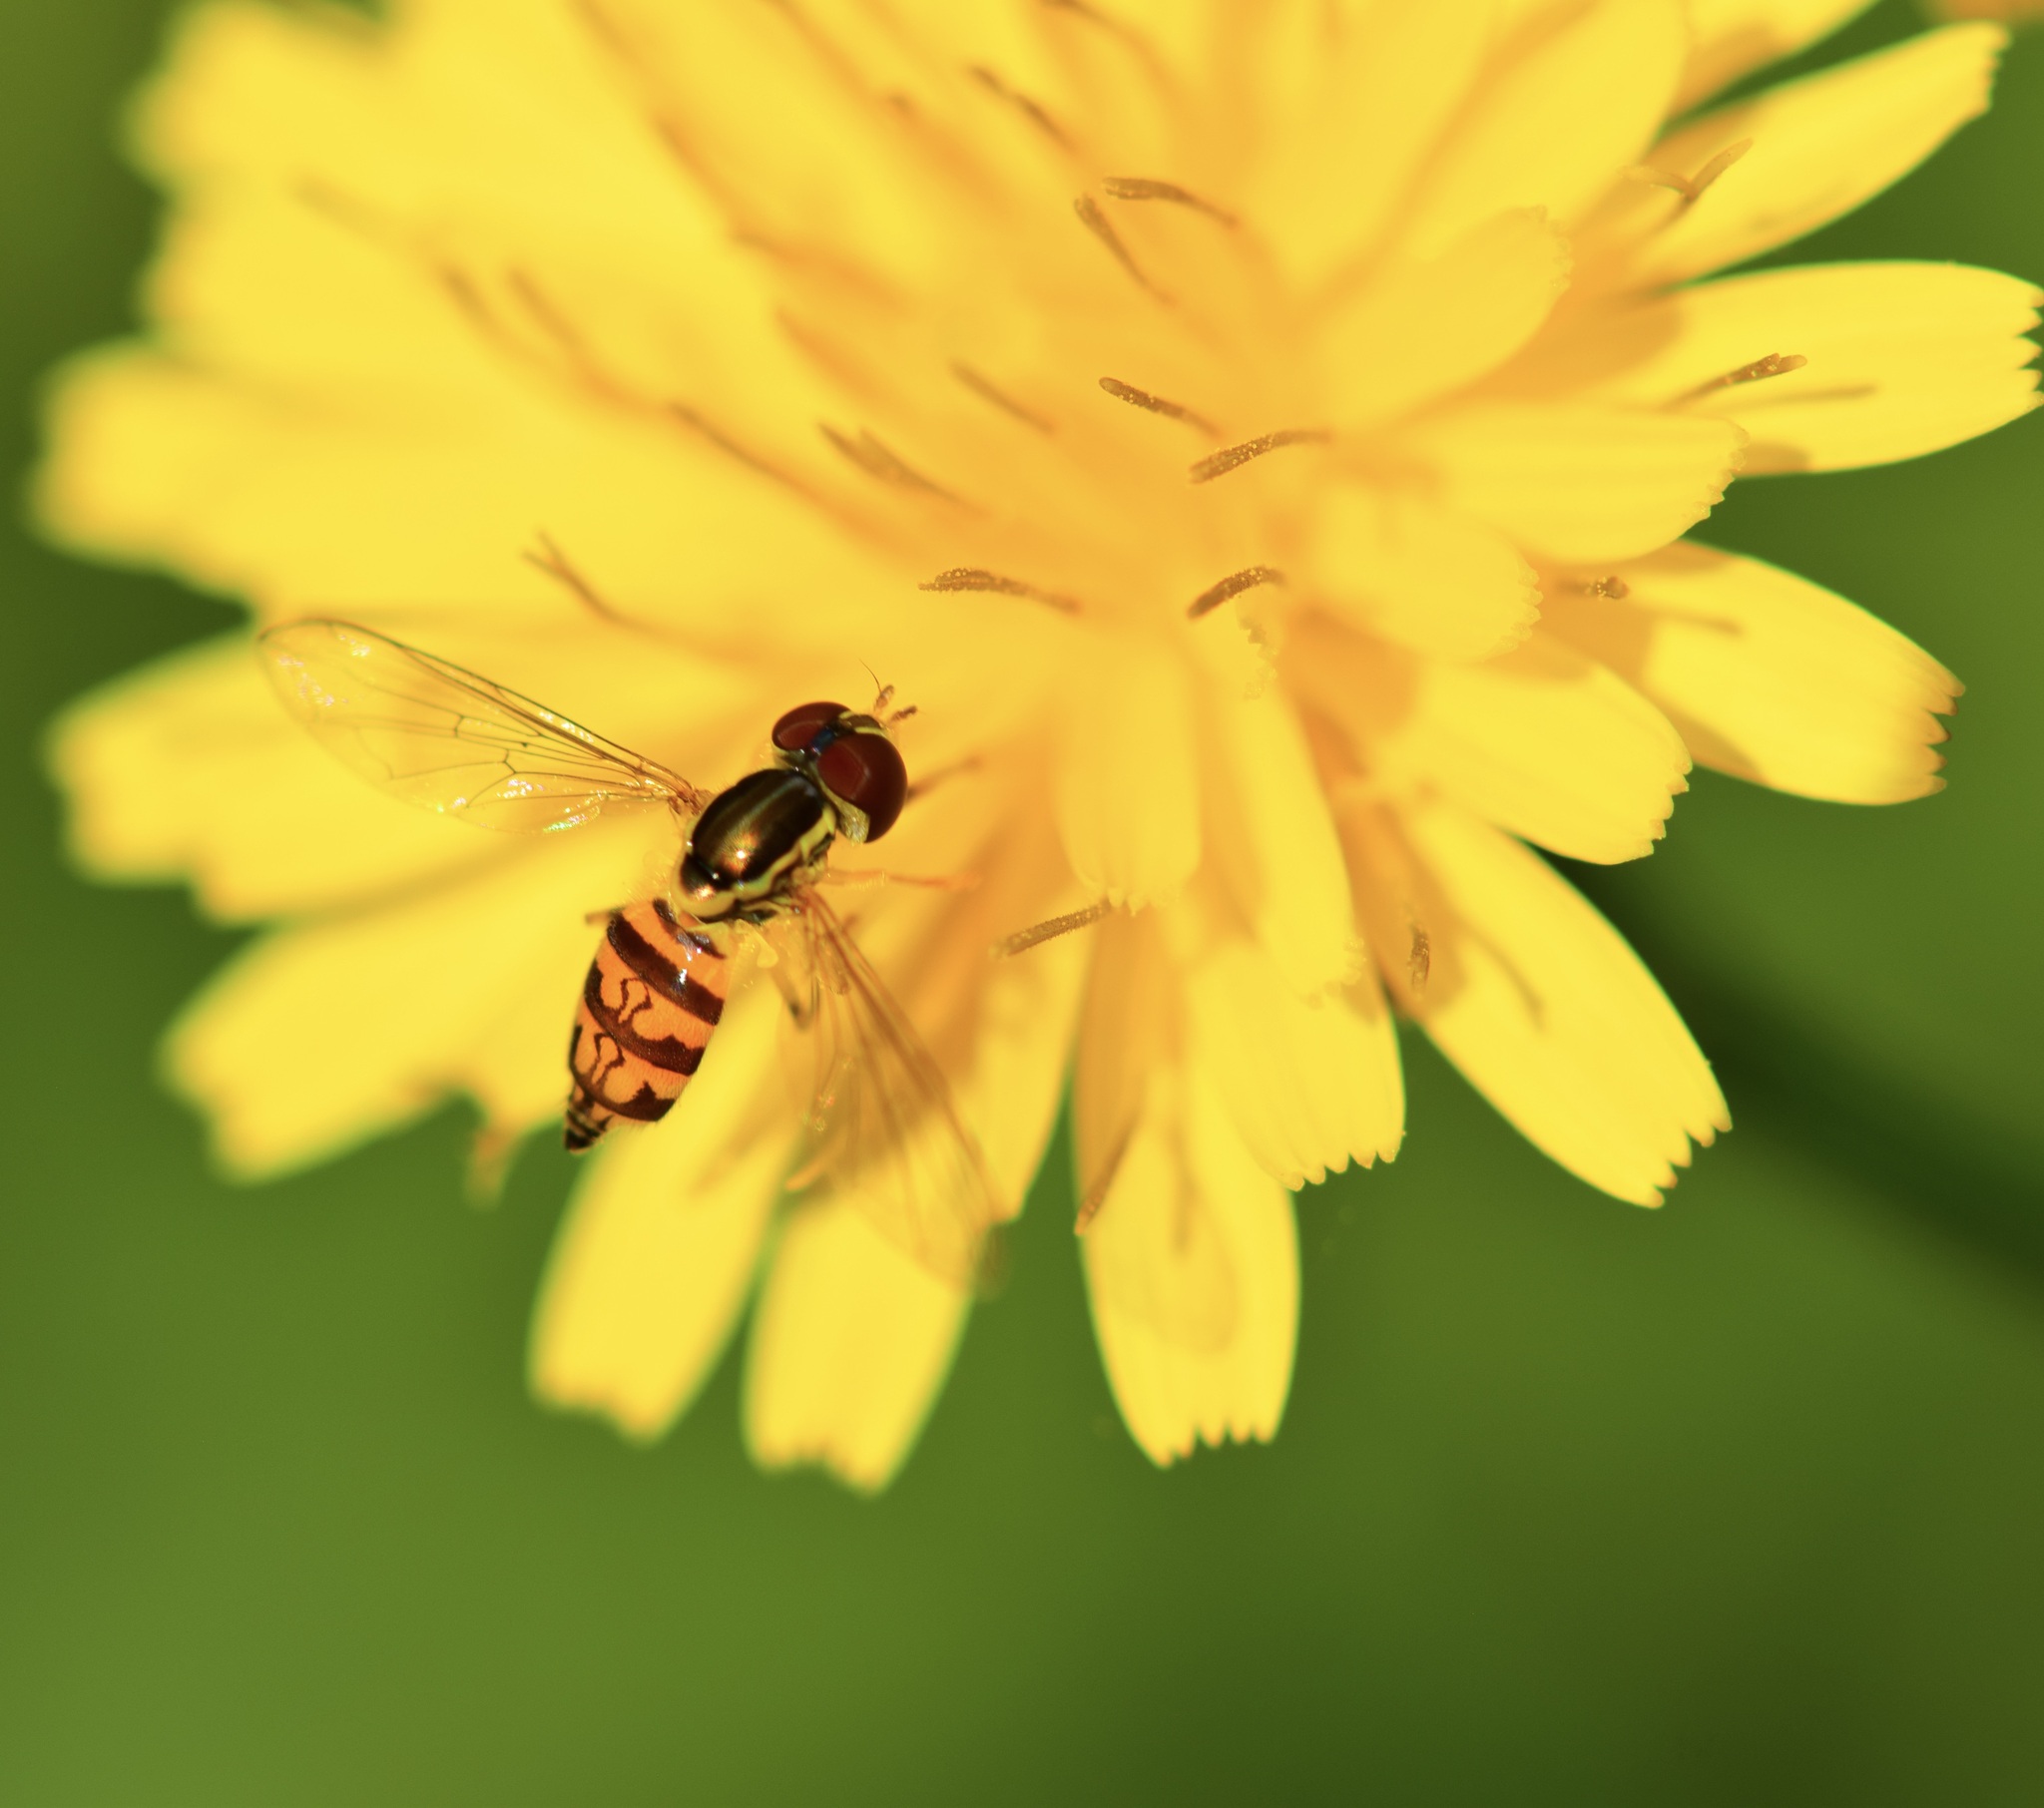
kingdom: Animalia
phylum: Arthropoda
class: Insecta
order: Diptera
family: Syrphidae
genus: Toxomerus
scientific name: Toxomerus geminatus
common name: Eastern calligrapher
